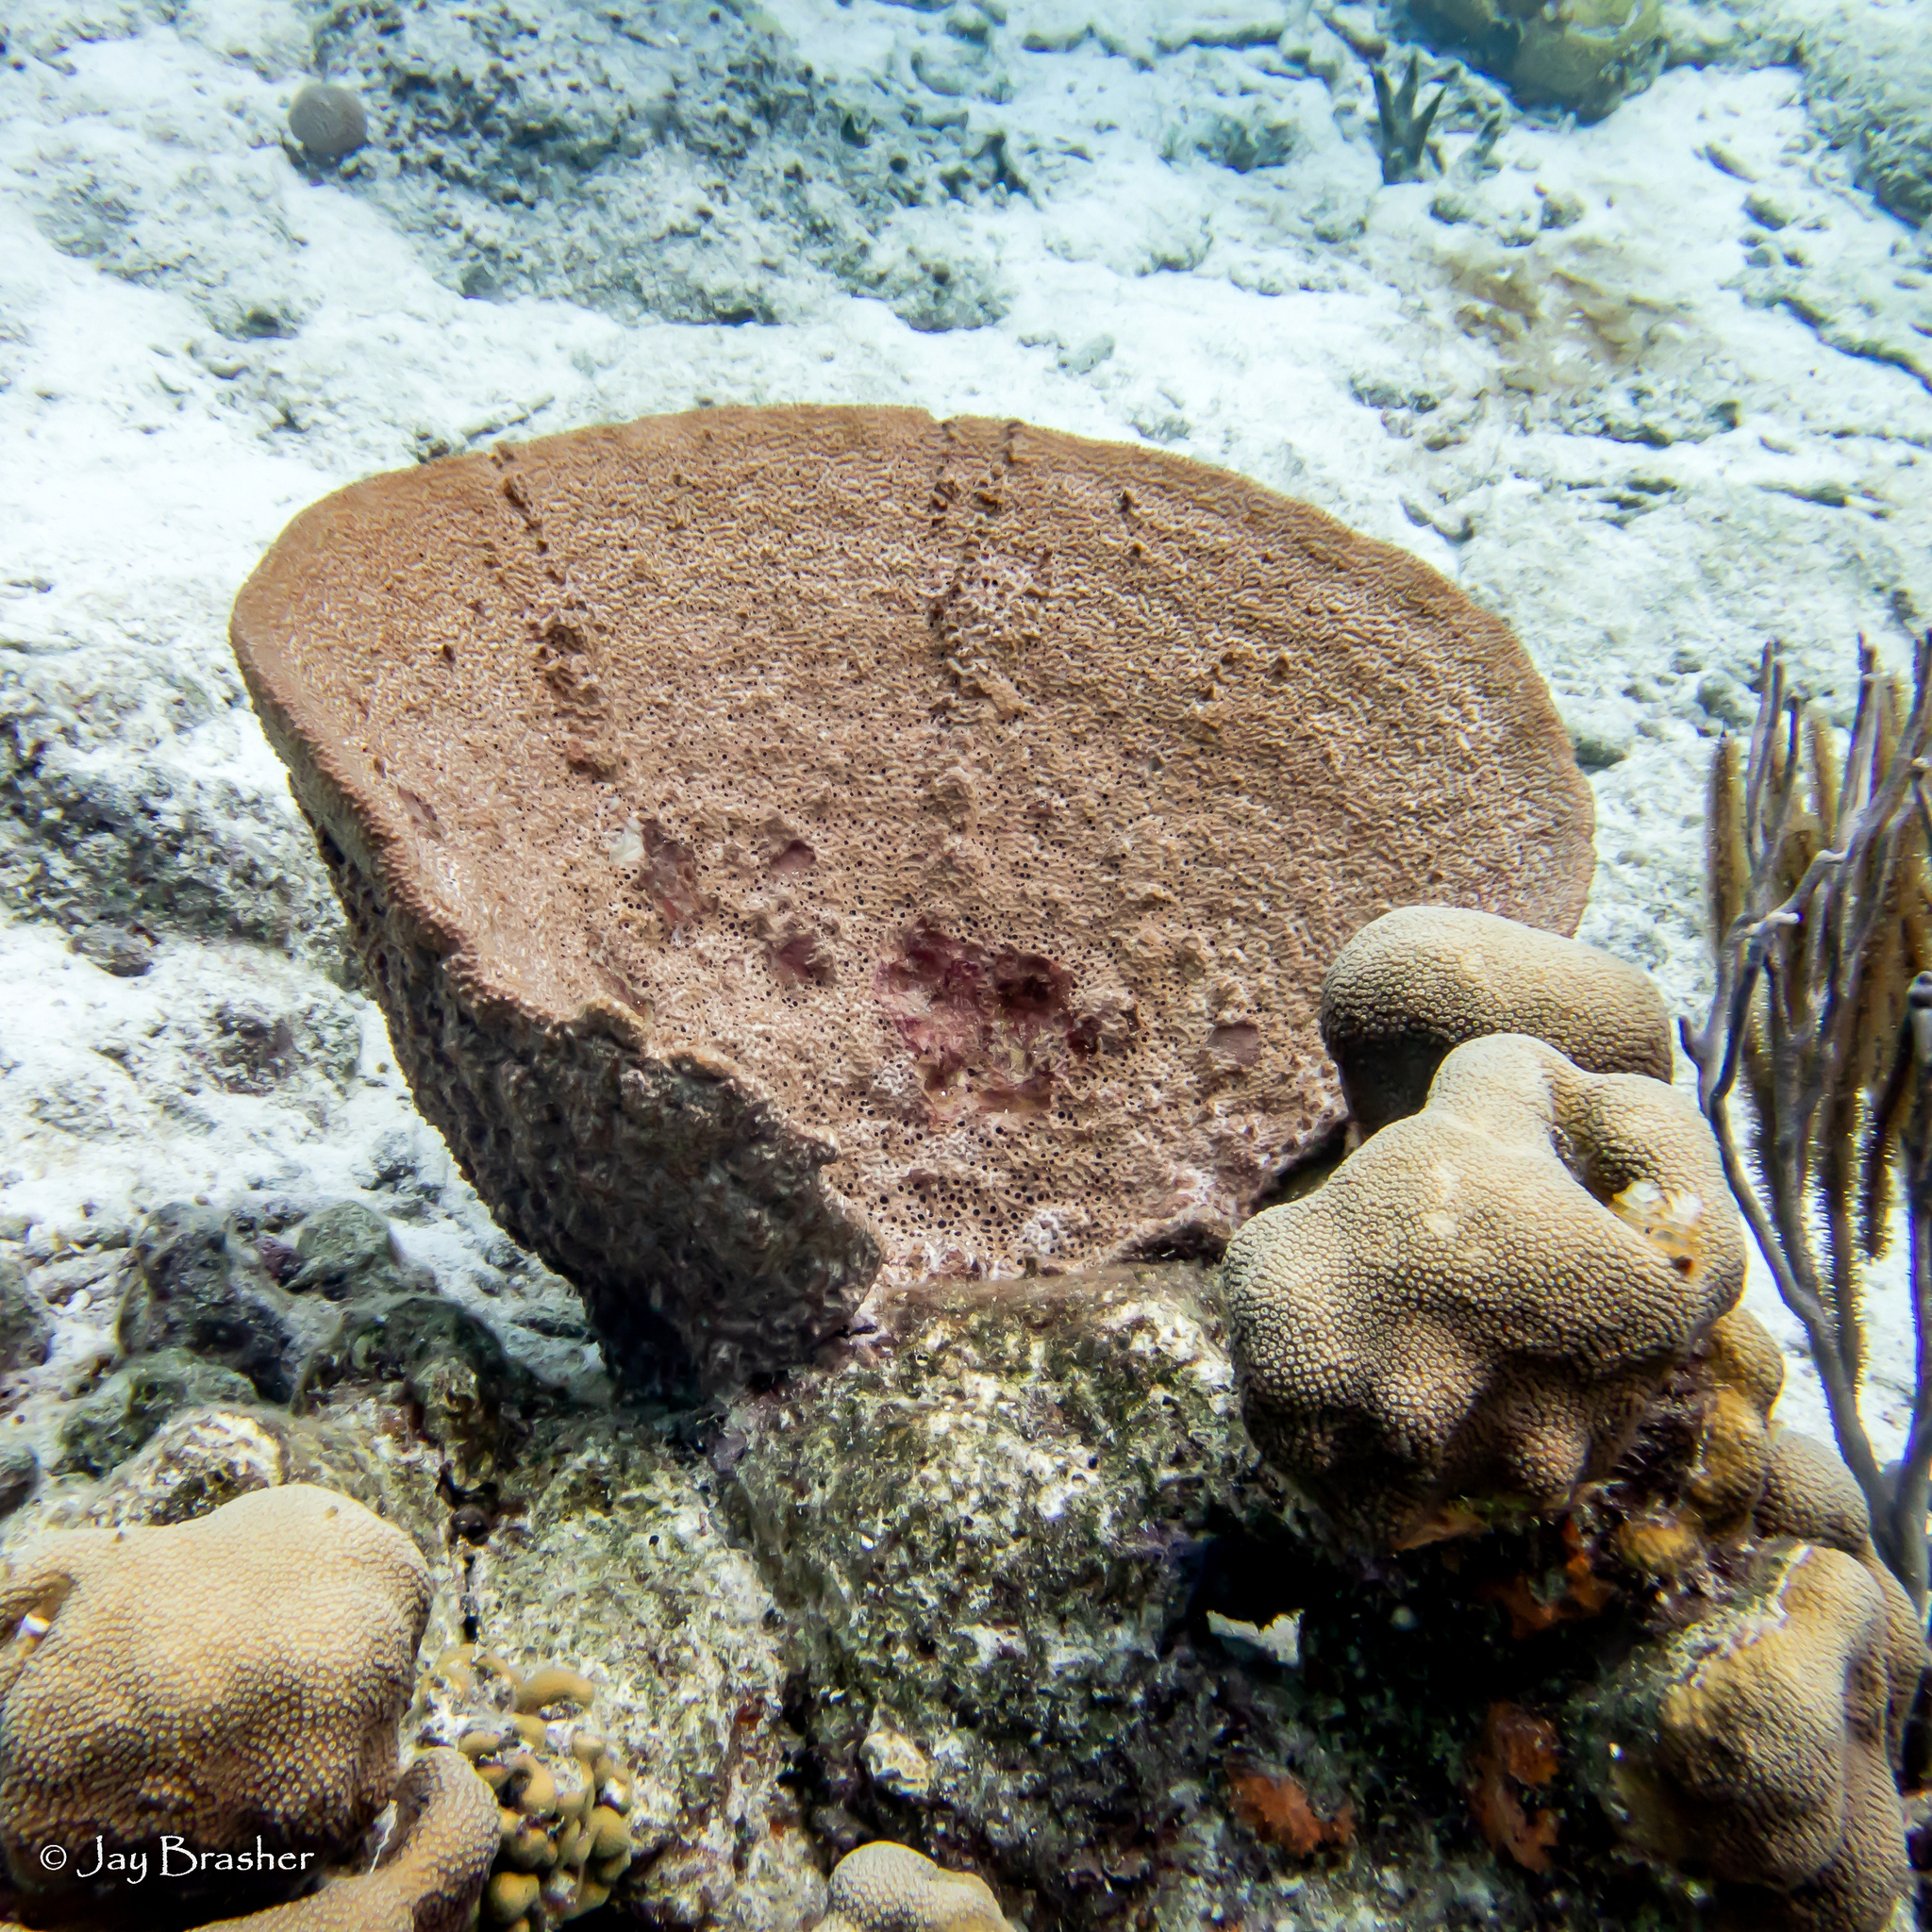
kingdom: Animalia
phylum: Porifera
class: Demospongiae
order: Dictyoceratida
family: Irciniidae
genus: Ircinia
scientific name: Ircinia campana
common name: Vase sponge
